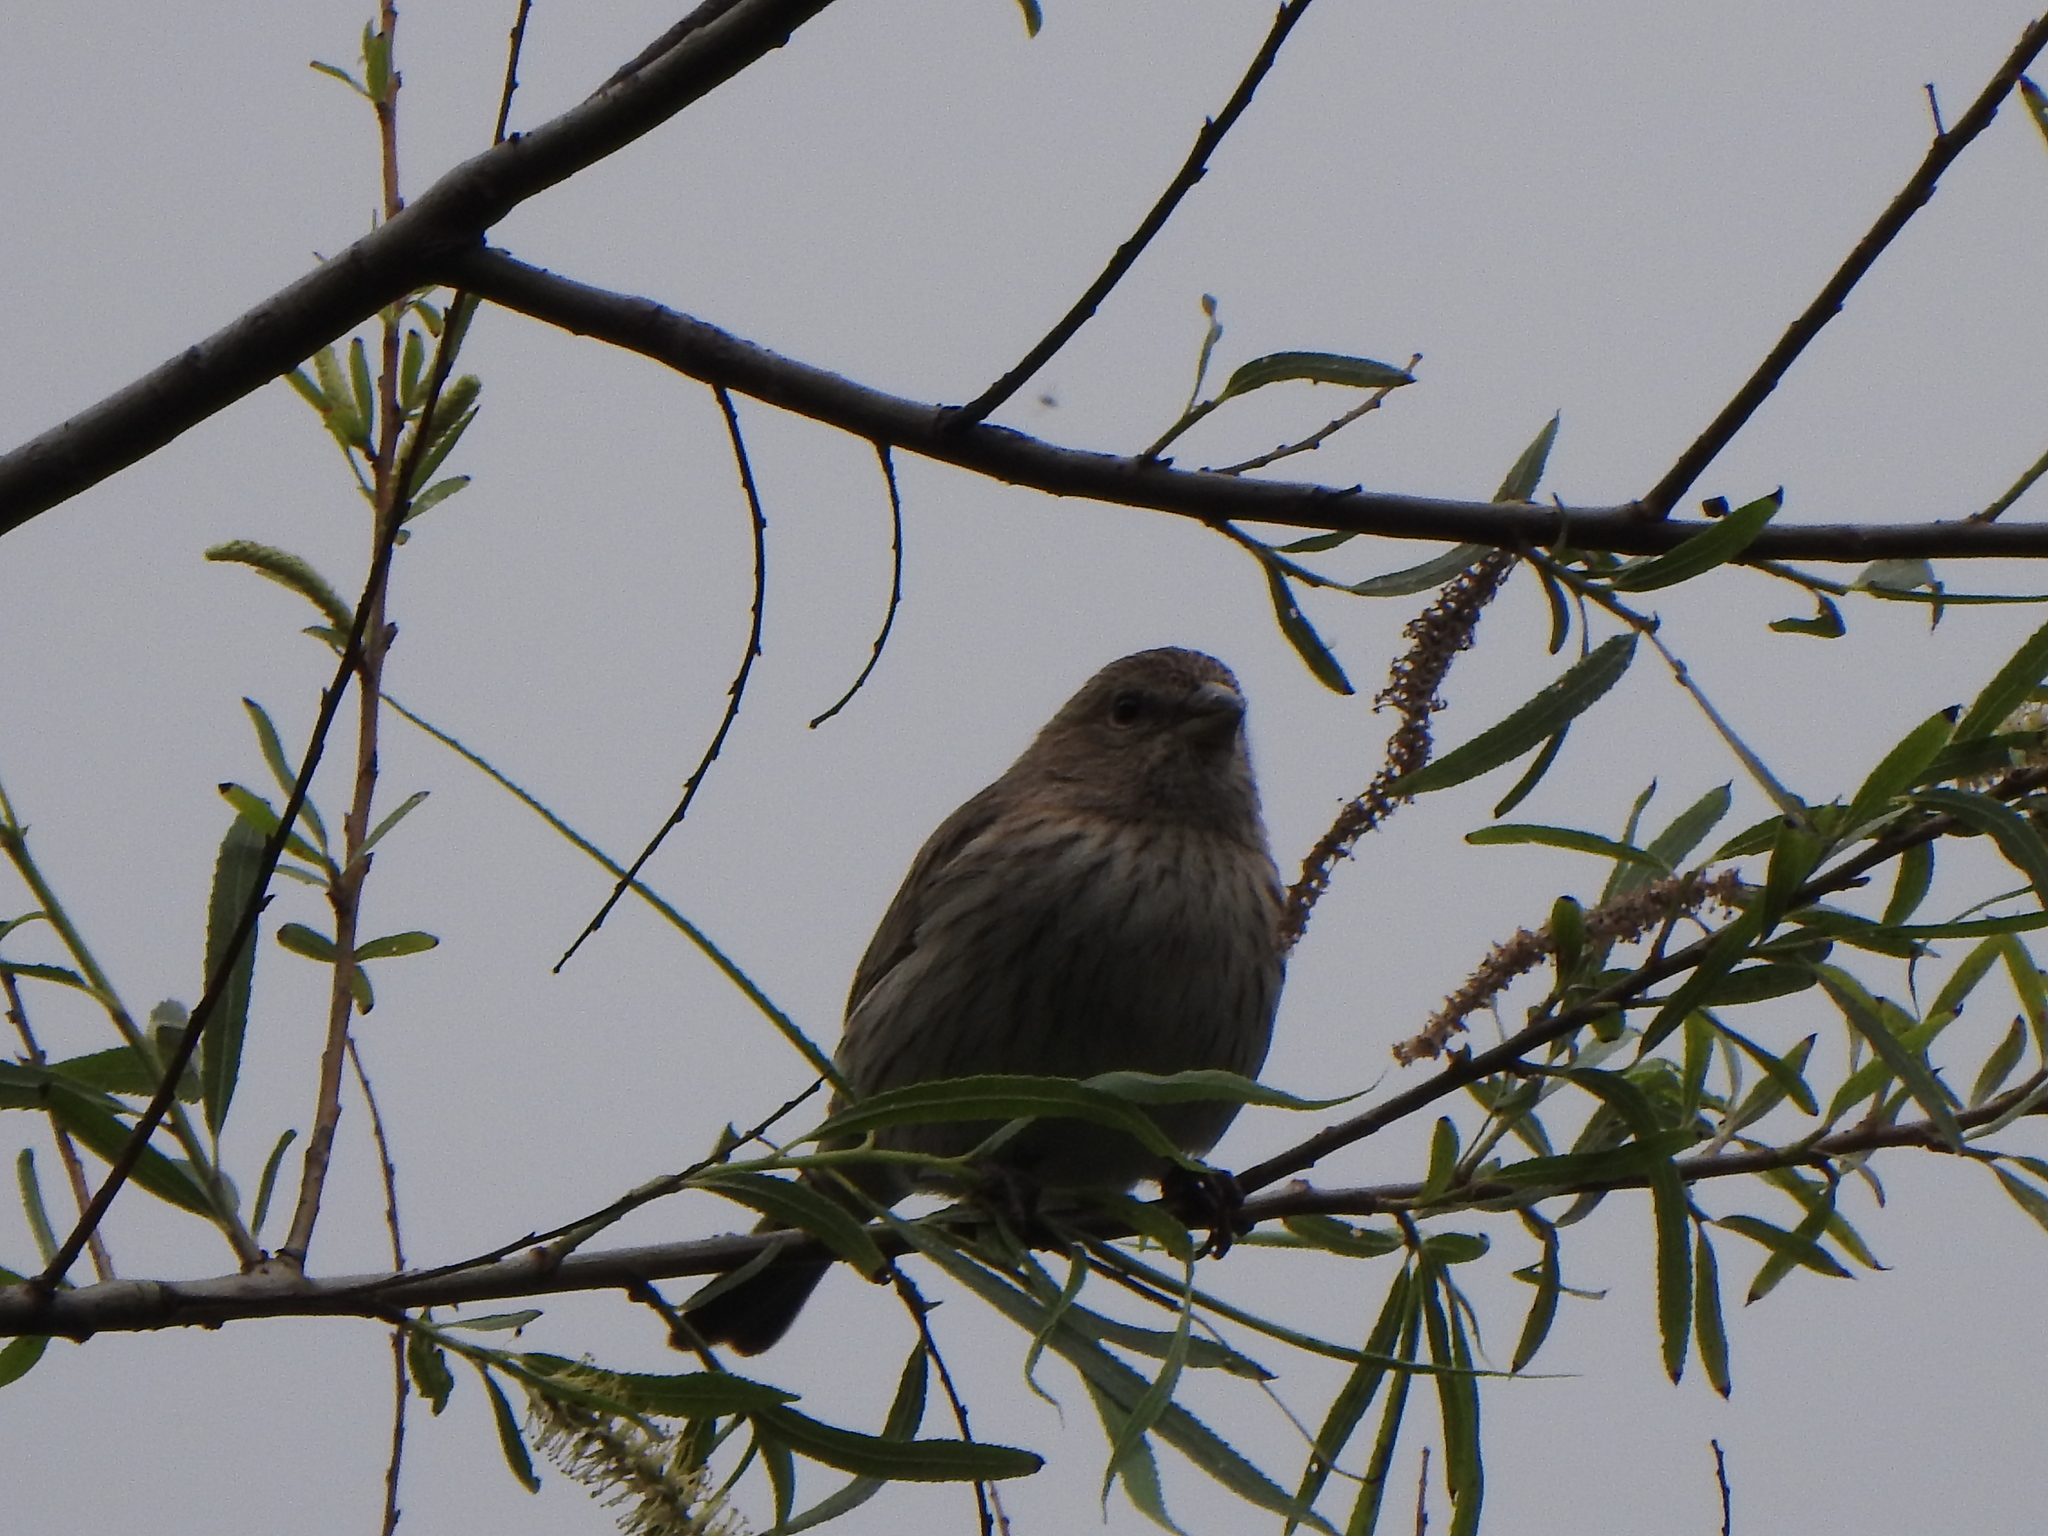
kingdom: Animalia
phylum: Chordata
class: Aves
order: Passeriformes
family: Thraupidae
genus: Sicalis
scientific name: Sicalis flaveola
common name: Saffron finch
